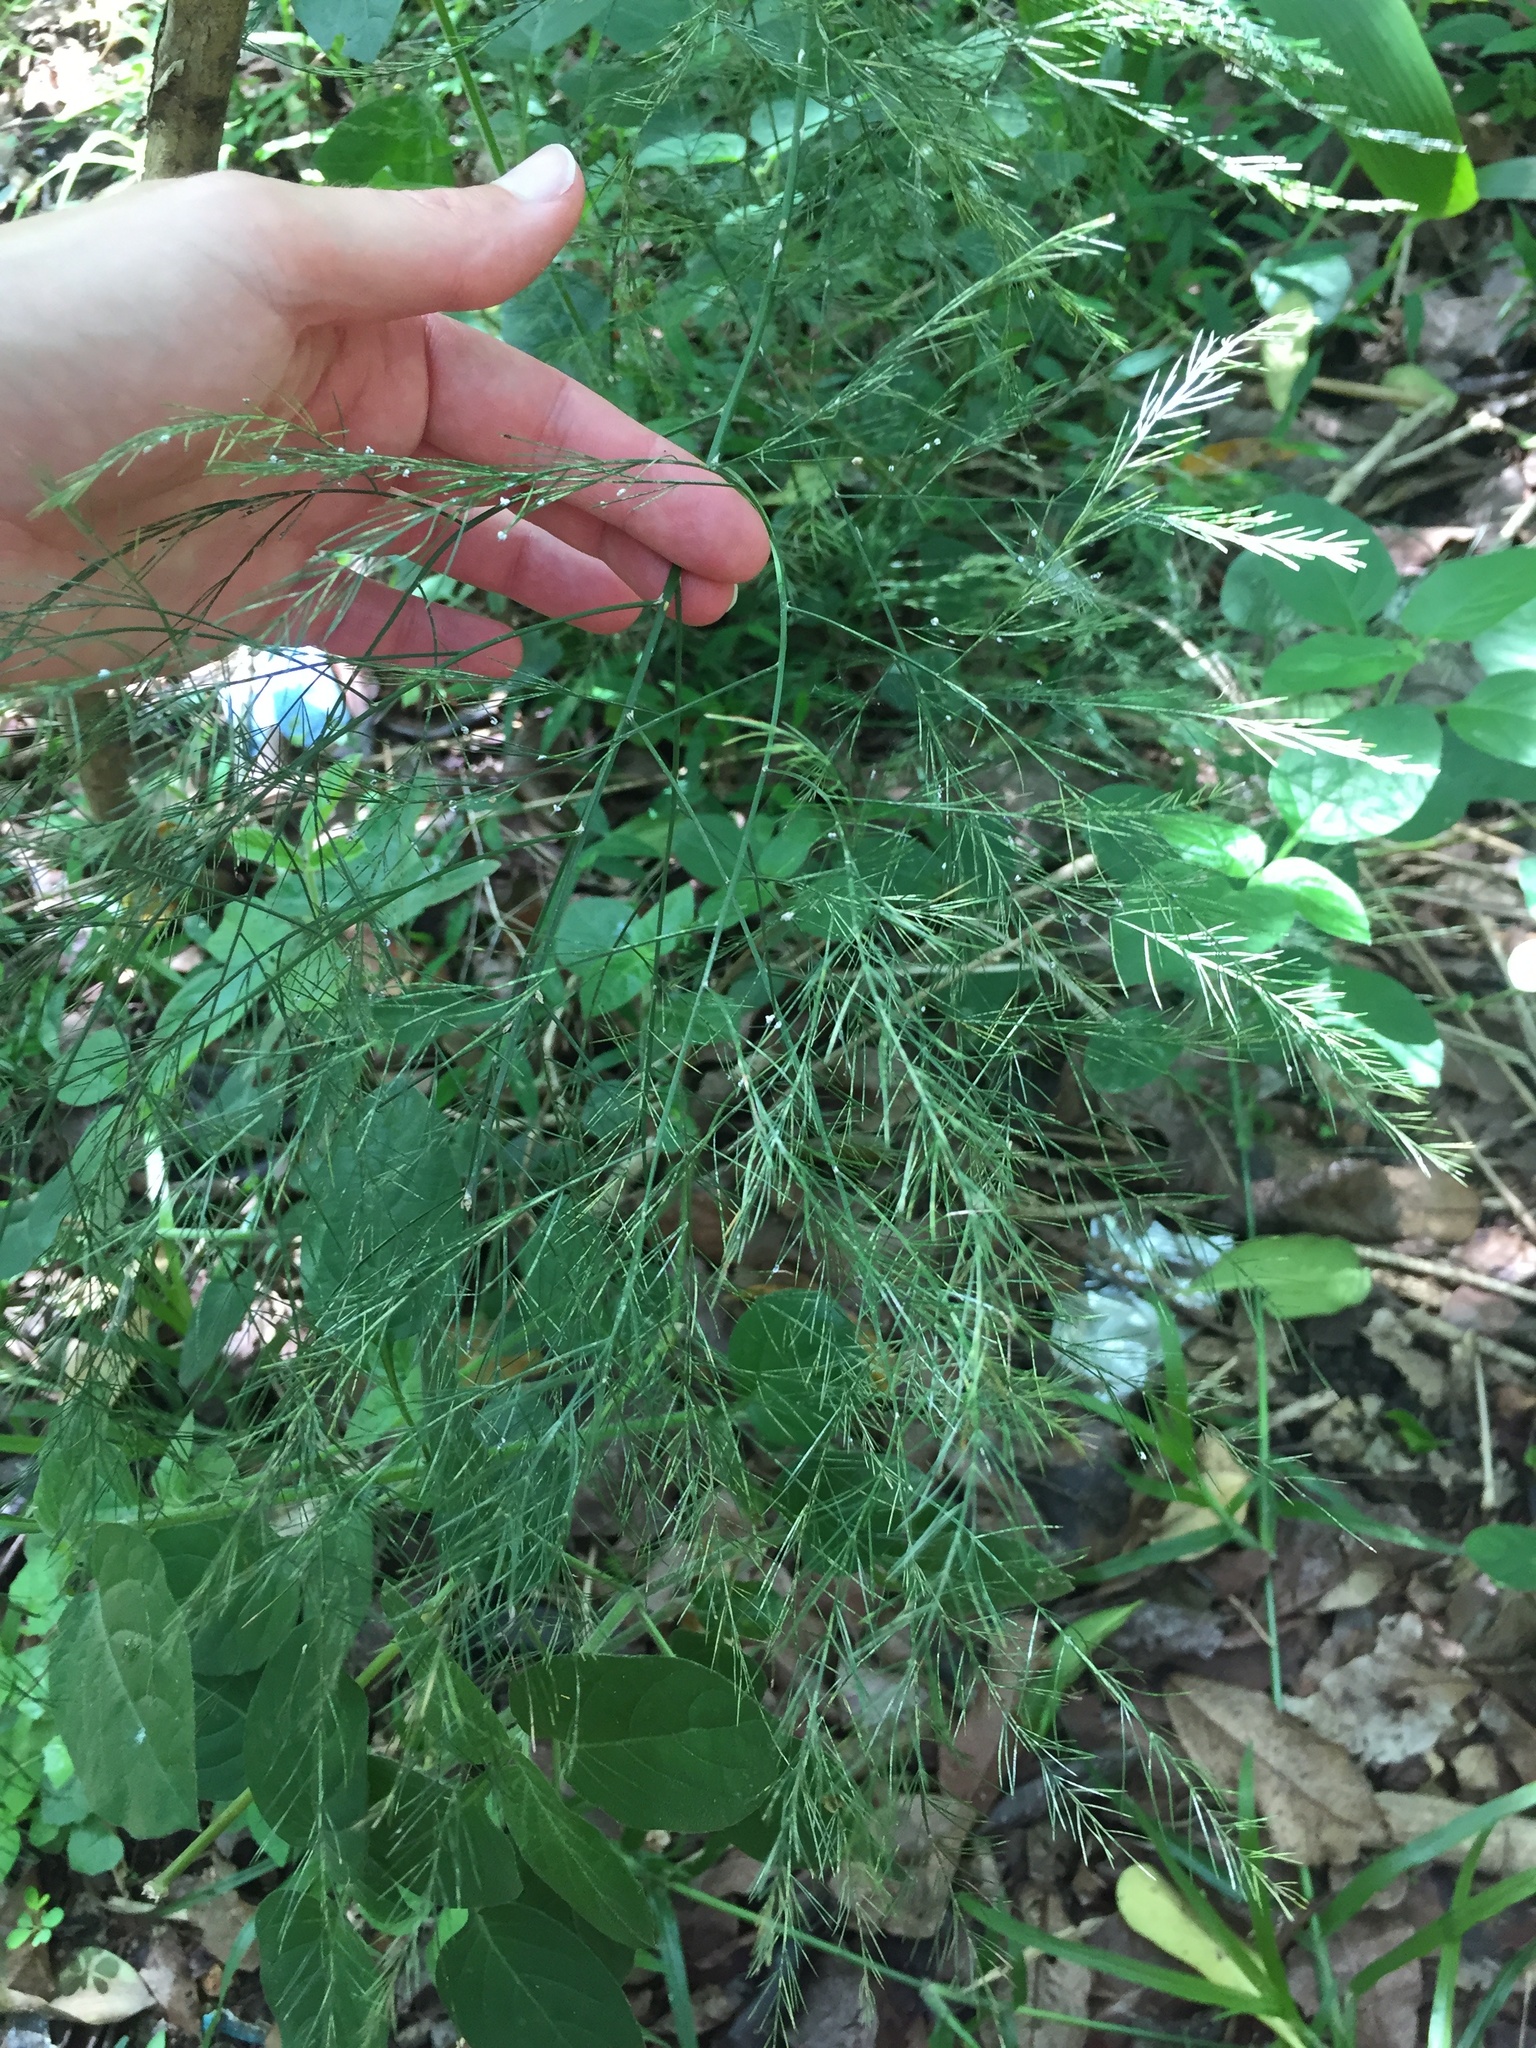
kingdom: Plantae
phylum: Tracheophyta
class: Liliopsida
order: Asparagales
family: Asparagaceae
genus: Asparagus
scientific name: Asparagus virgatus
